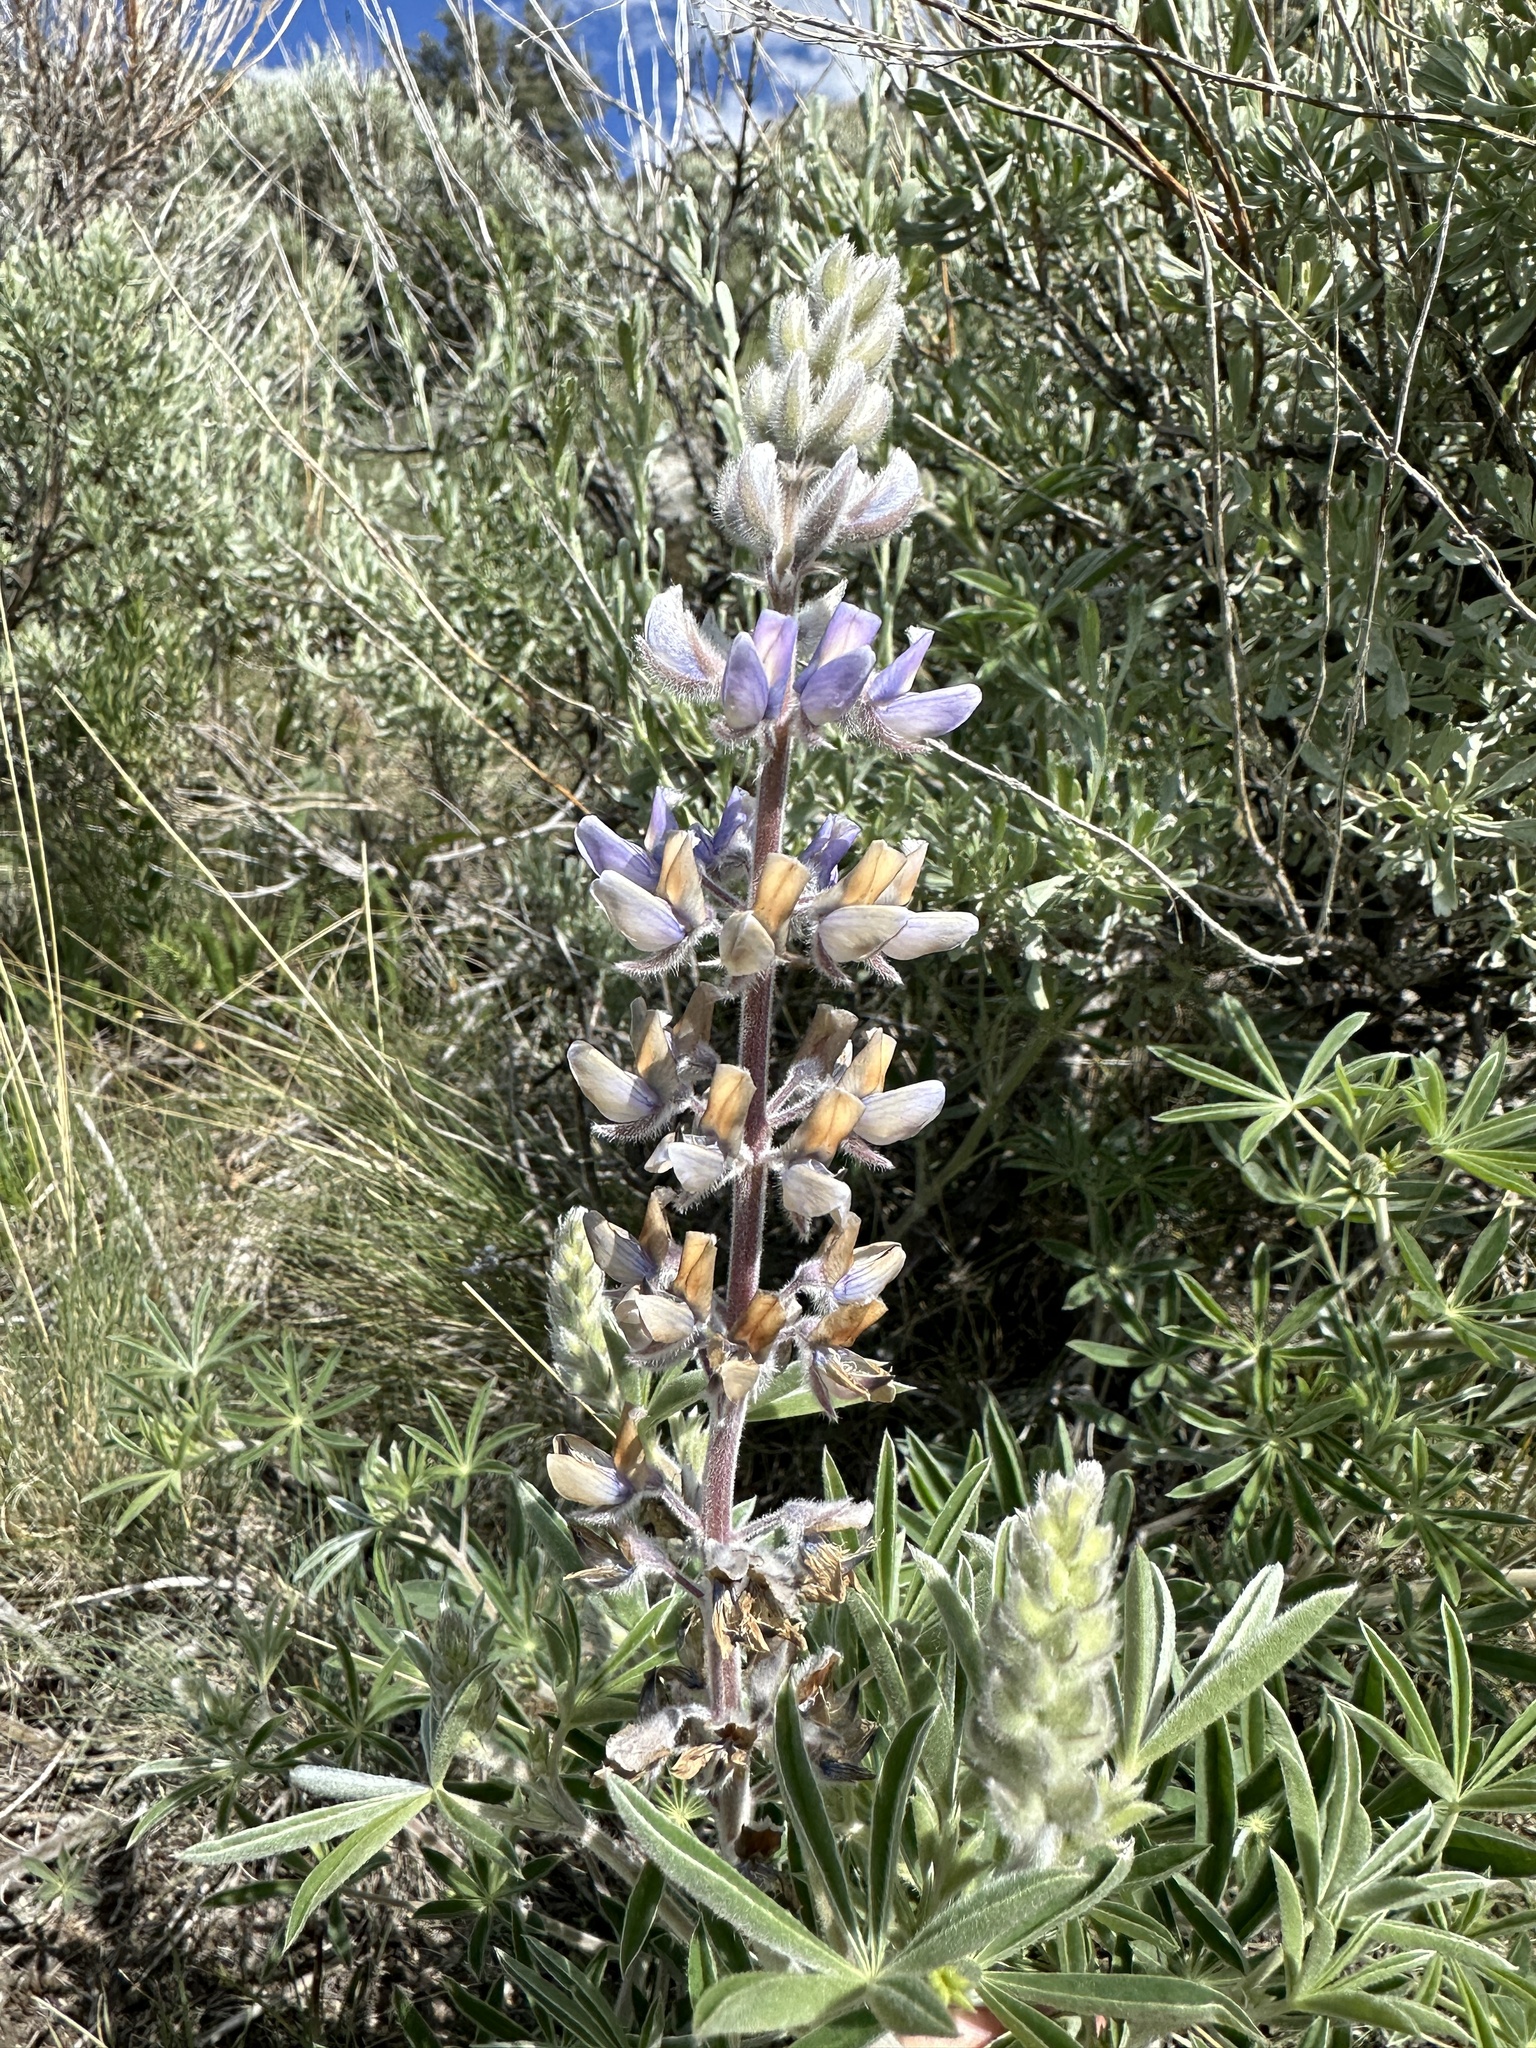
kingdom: Plantae
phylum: Tracheophyta
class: Magnoliopsida
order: Fabales
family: Fabaceae
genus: Lupinus
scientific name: Lupinus sericeus
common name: Silky lupine
